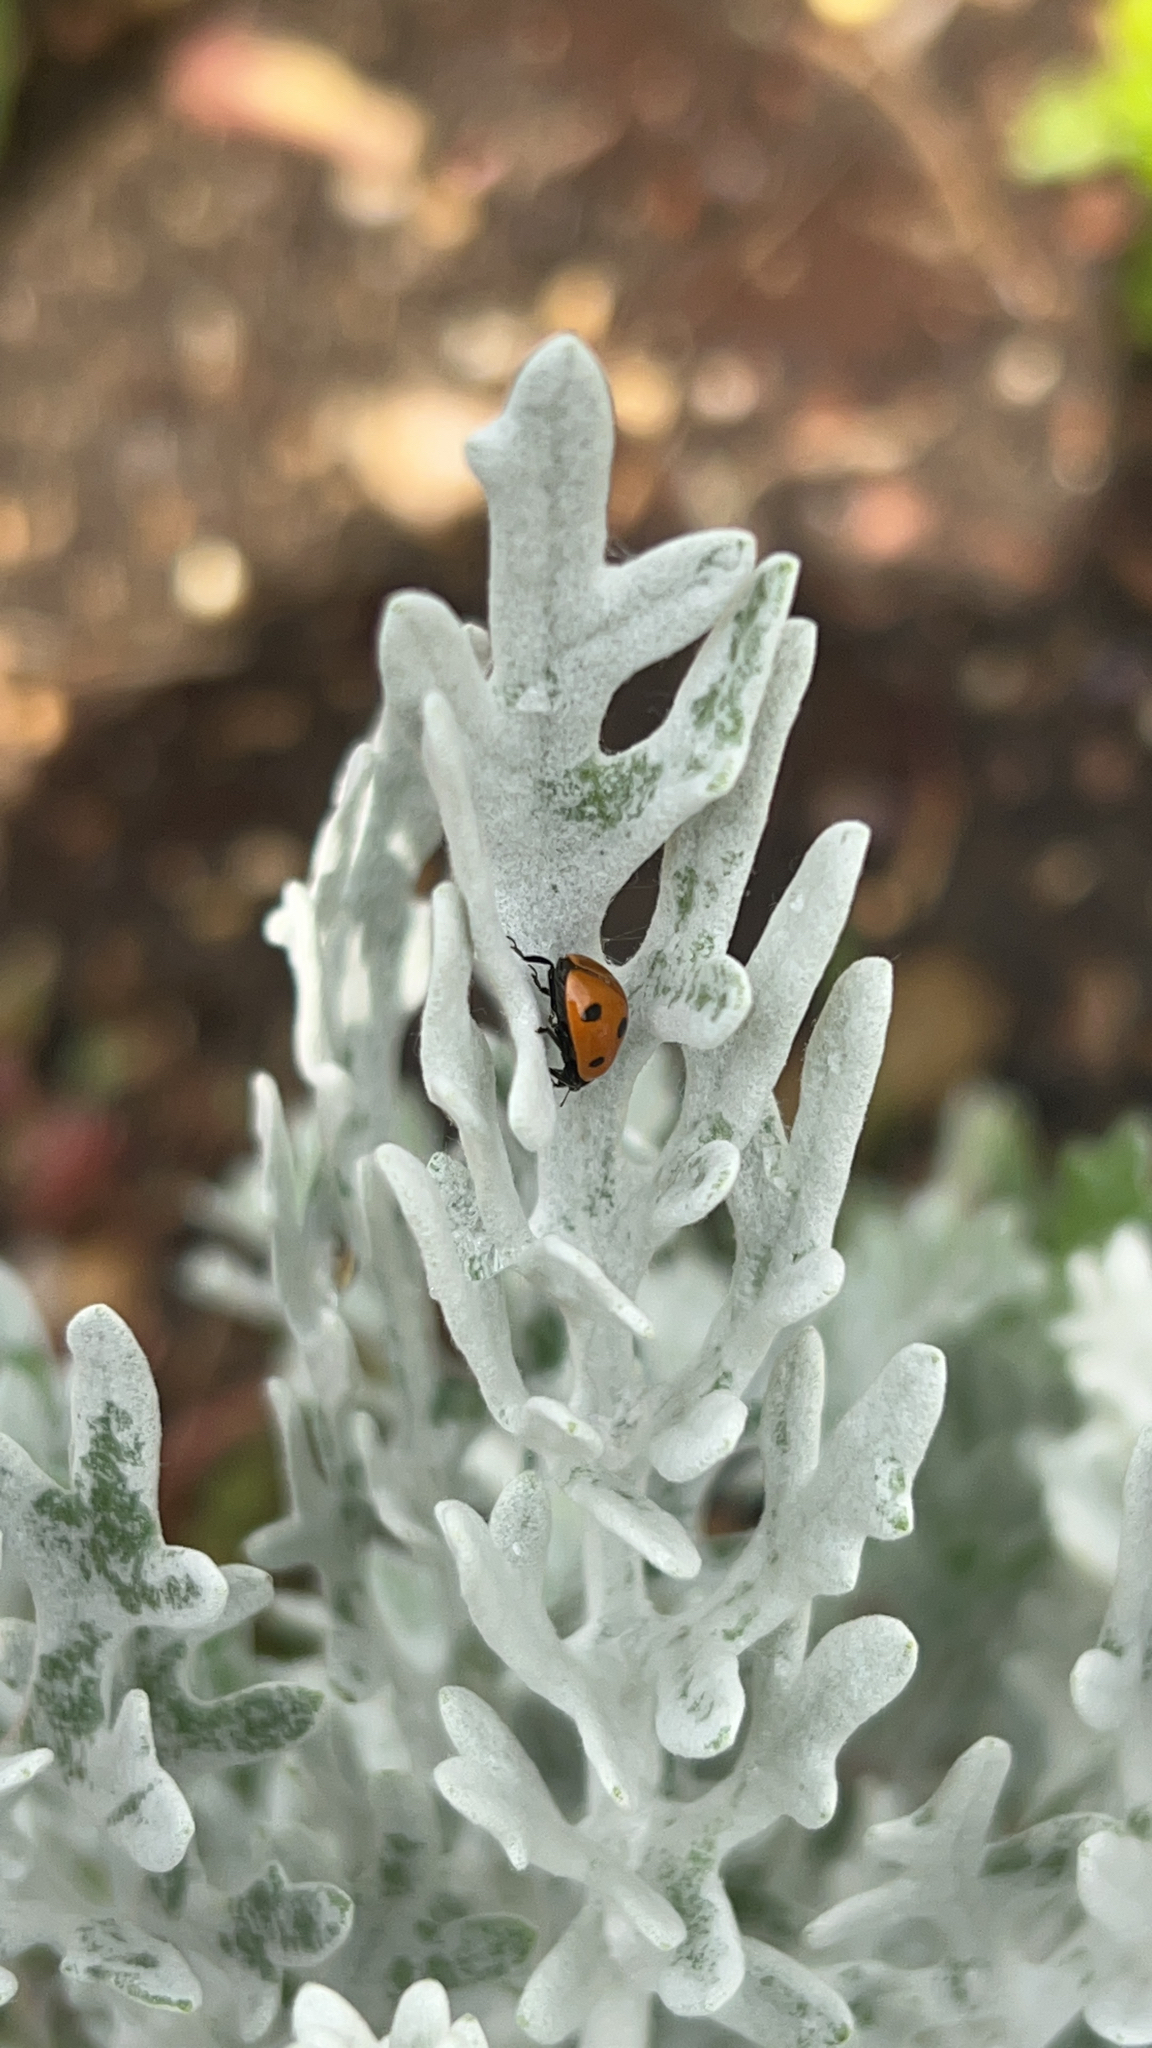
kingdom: Animalia
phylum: Arthropoda
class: Insecta
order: Coleoptera
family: Coccinellidae
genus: Coccinella
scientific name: Coccinella septempunctata
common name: Sevenspotted lady beetle
